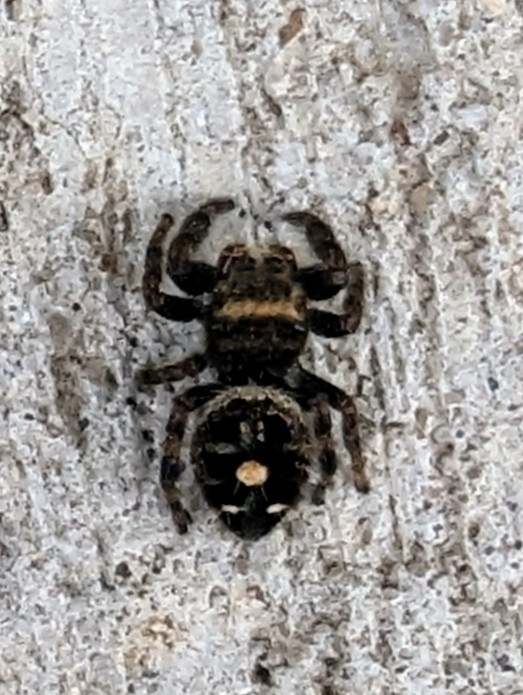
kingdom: Animalia
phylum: Arthropoda
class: Arachnida
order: Araneae
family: Salticidae
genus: Phidippus
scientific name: Phidippus audax
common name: Bold jumper
